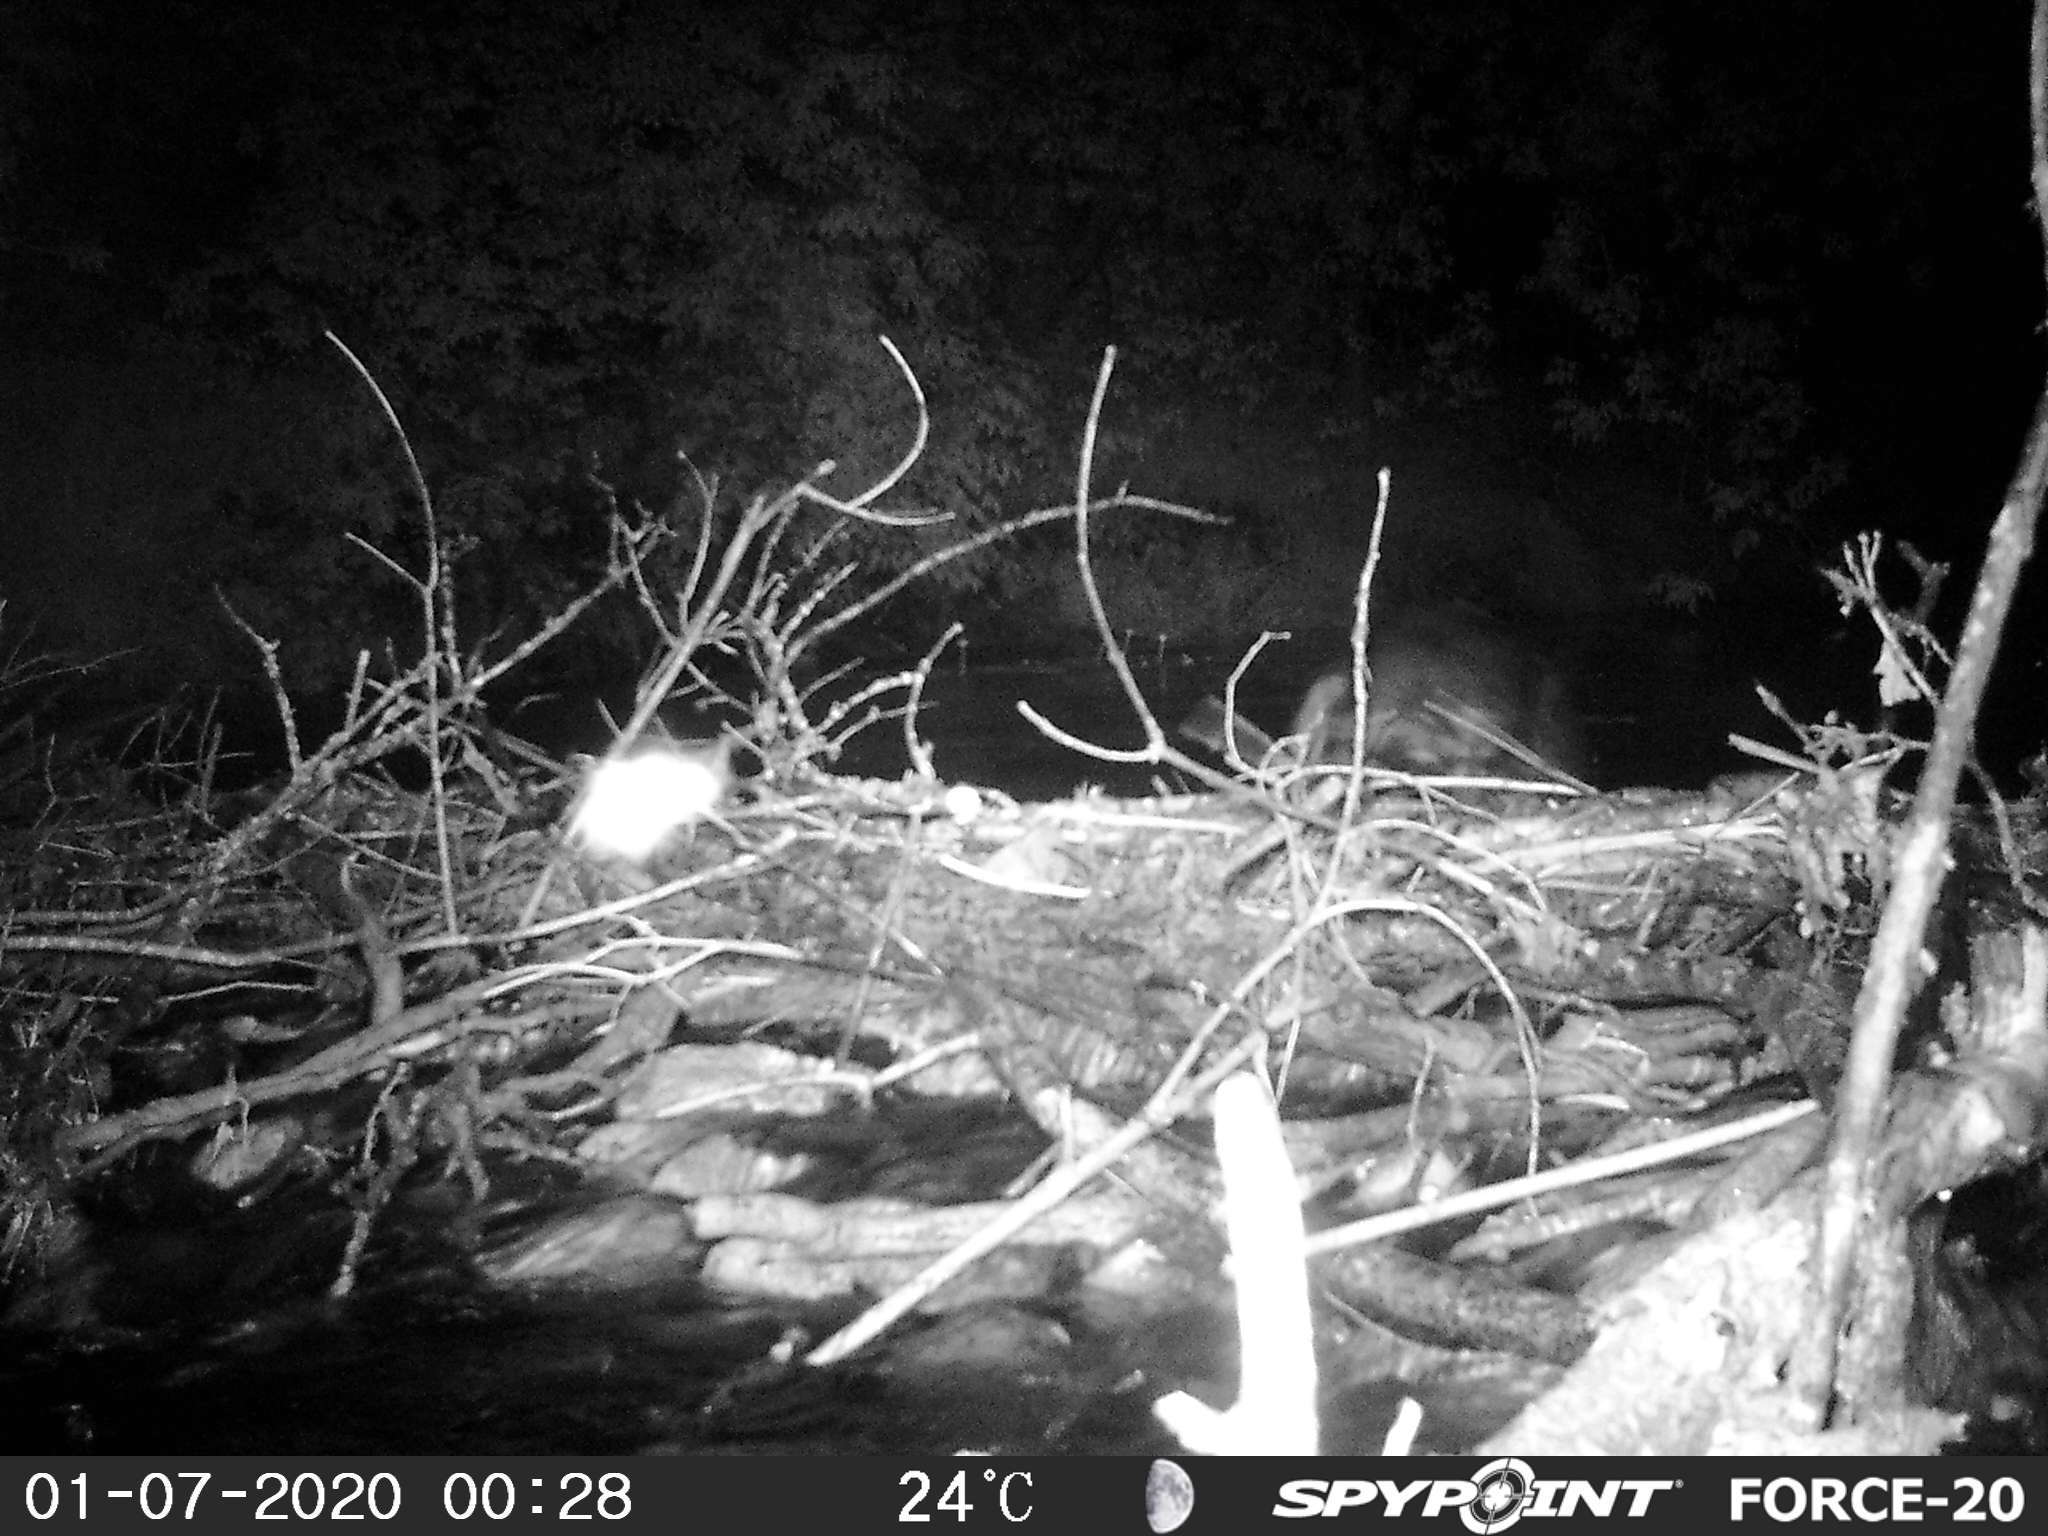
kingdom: Animalia
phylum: Chordata
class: Mammalia
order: Rodentia
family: Cricetidae
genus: Ondatra
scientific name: Ondatra zibethicus
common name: Muskrat
